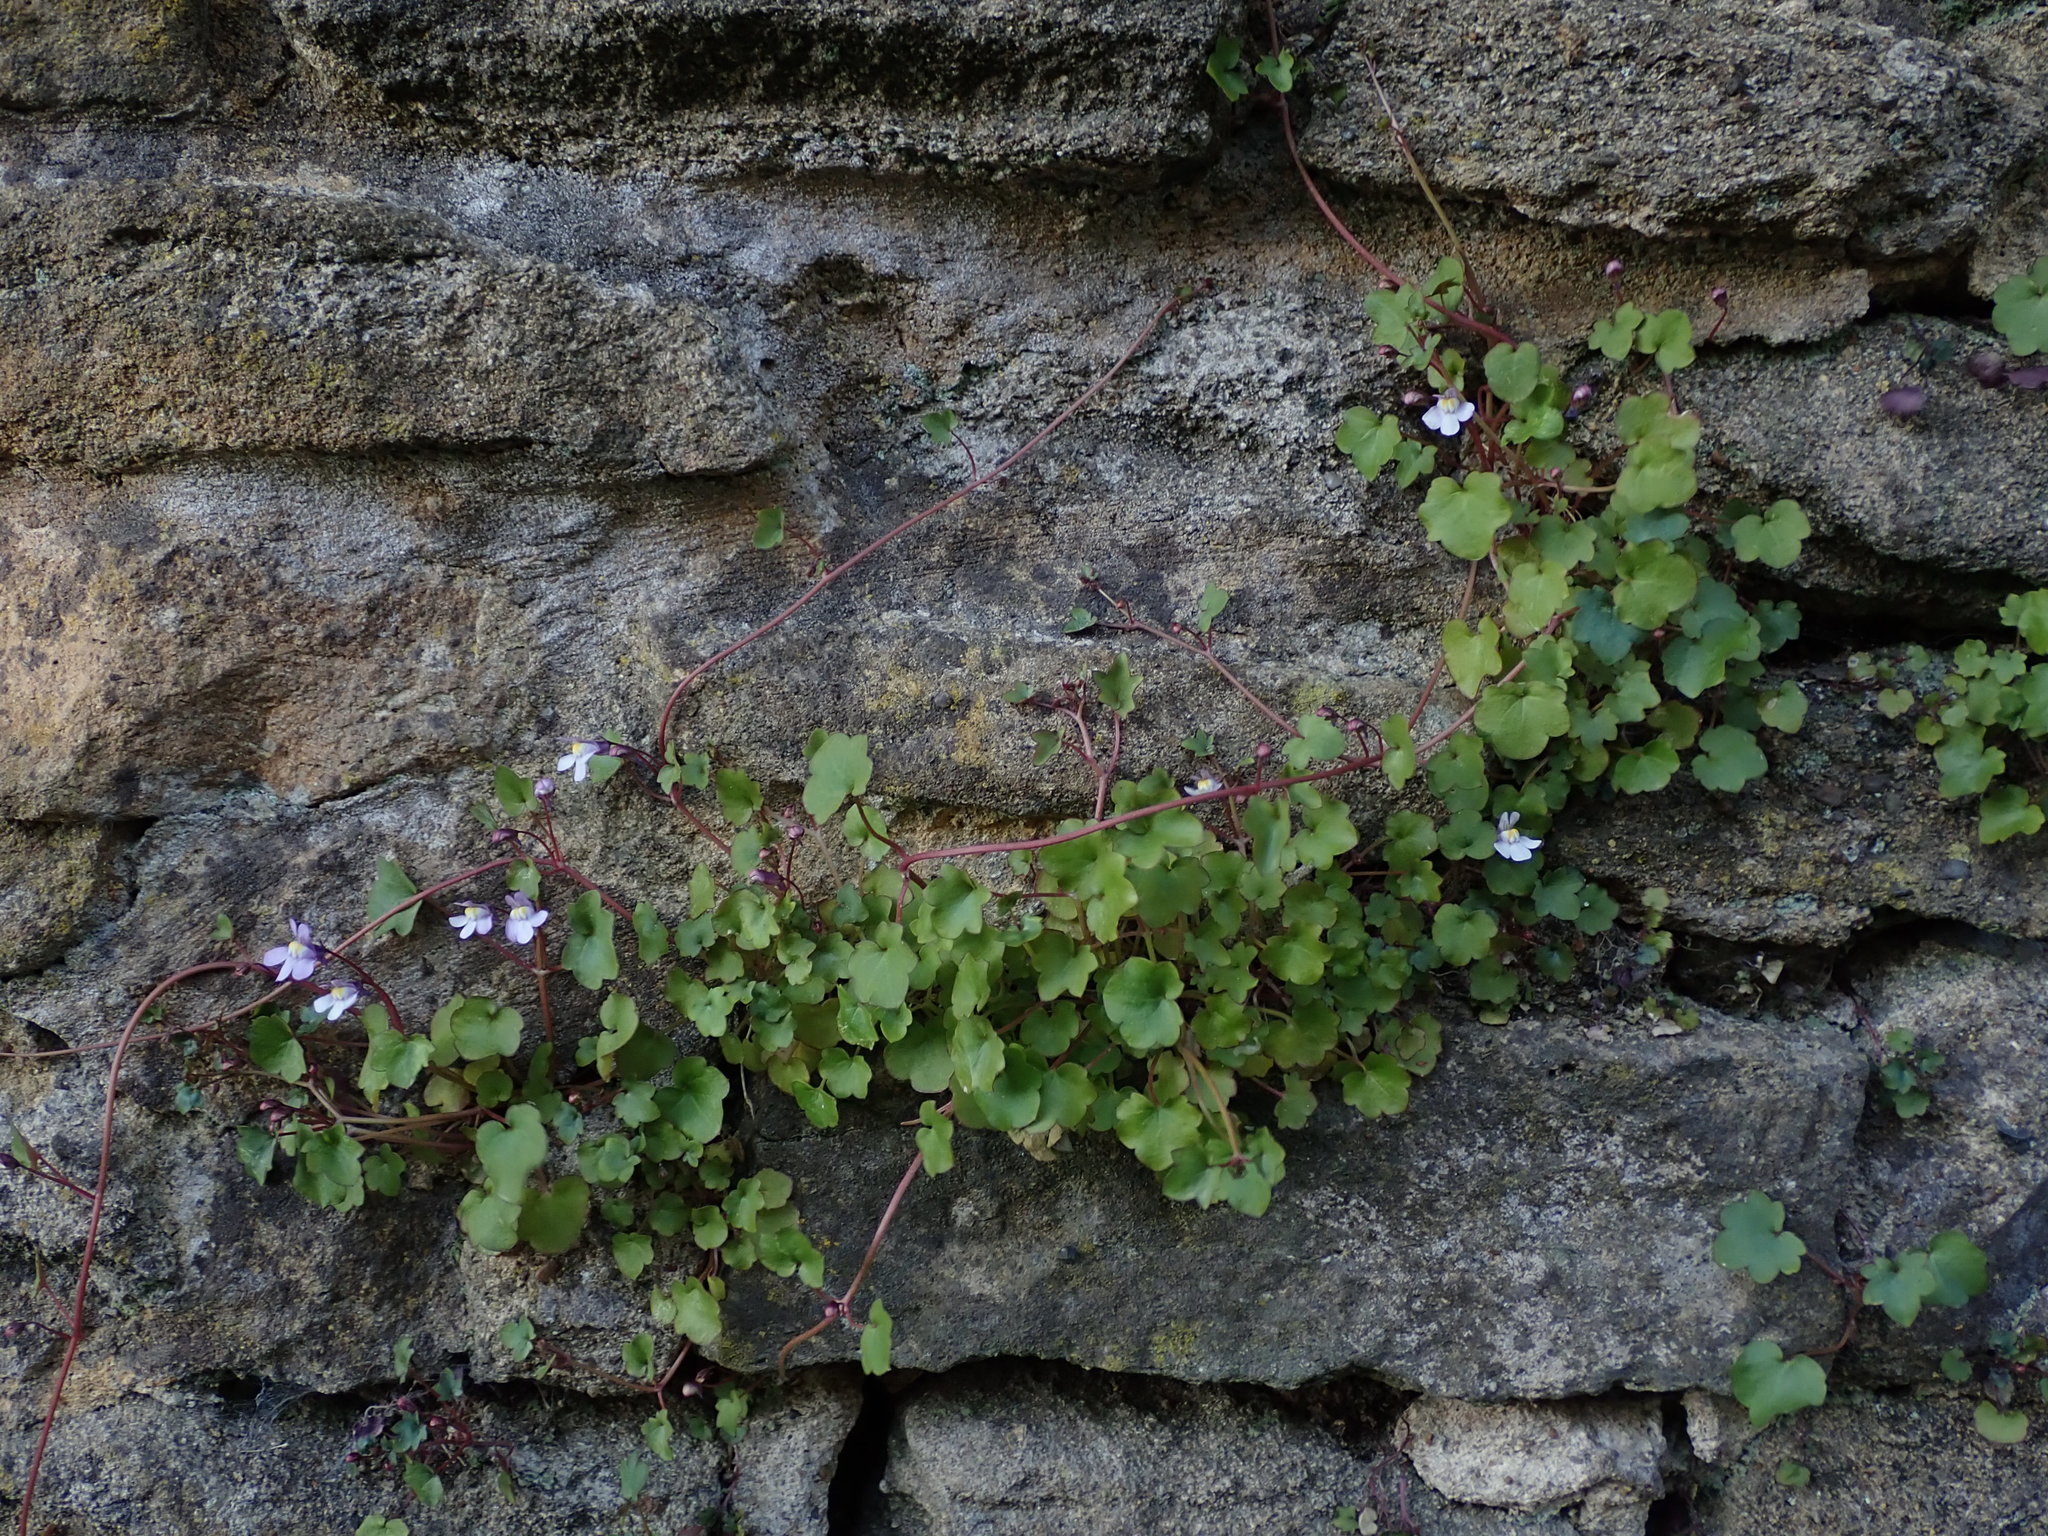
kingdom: Plantae
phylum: Tracheophyta
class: Magnoliopsida
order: Lamiales
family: Plantaginaceae
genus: Cymbalaria
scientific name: Cymbalaria muralis
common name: Ivy-leaved toadflax
